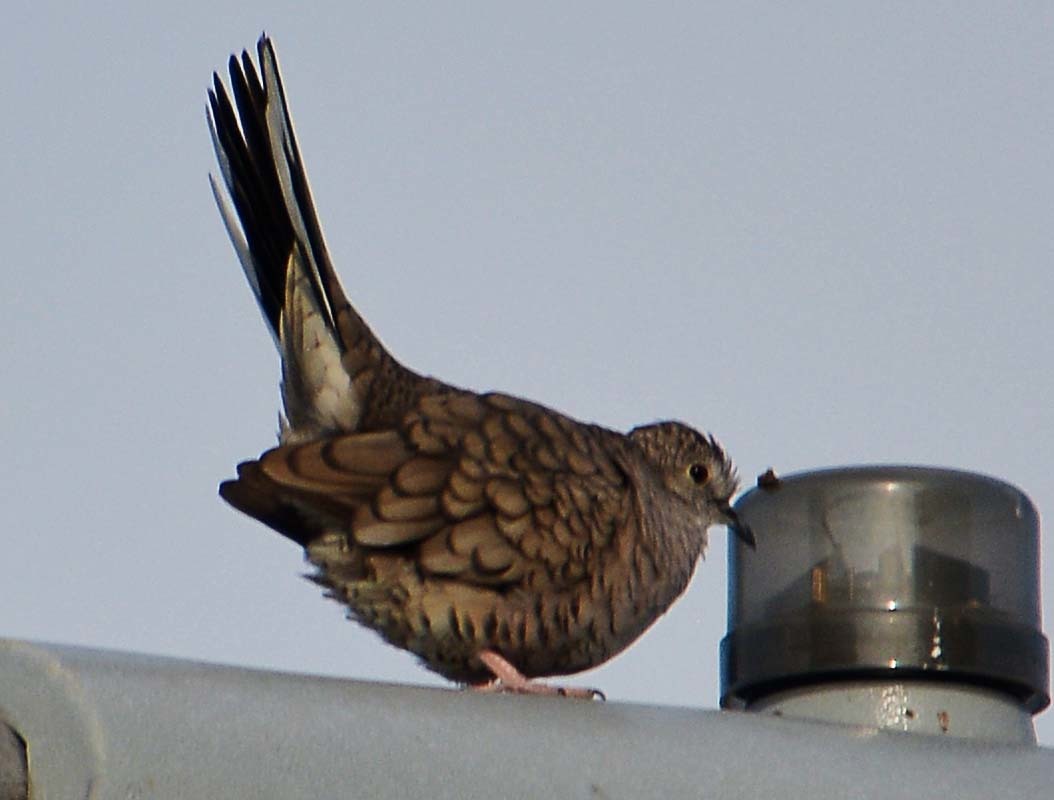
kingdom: Animalia
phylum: Chordata
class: Aves
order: Columbiformes
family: Columbidae
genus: Columbina
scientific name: Columbina inca
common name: Inca dove
